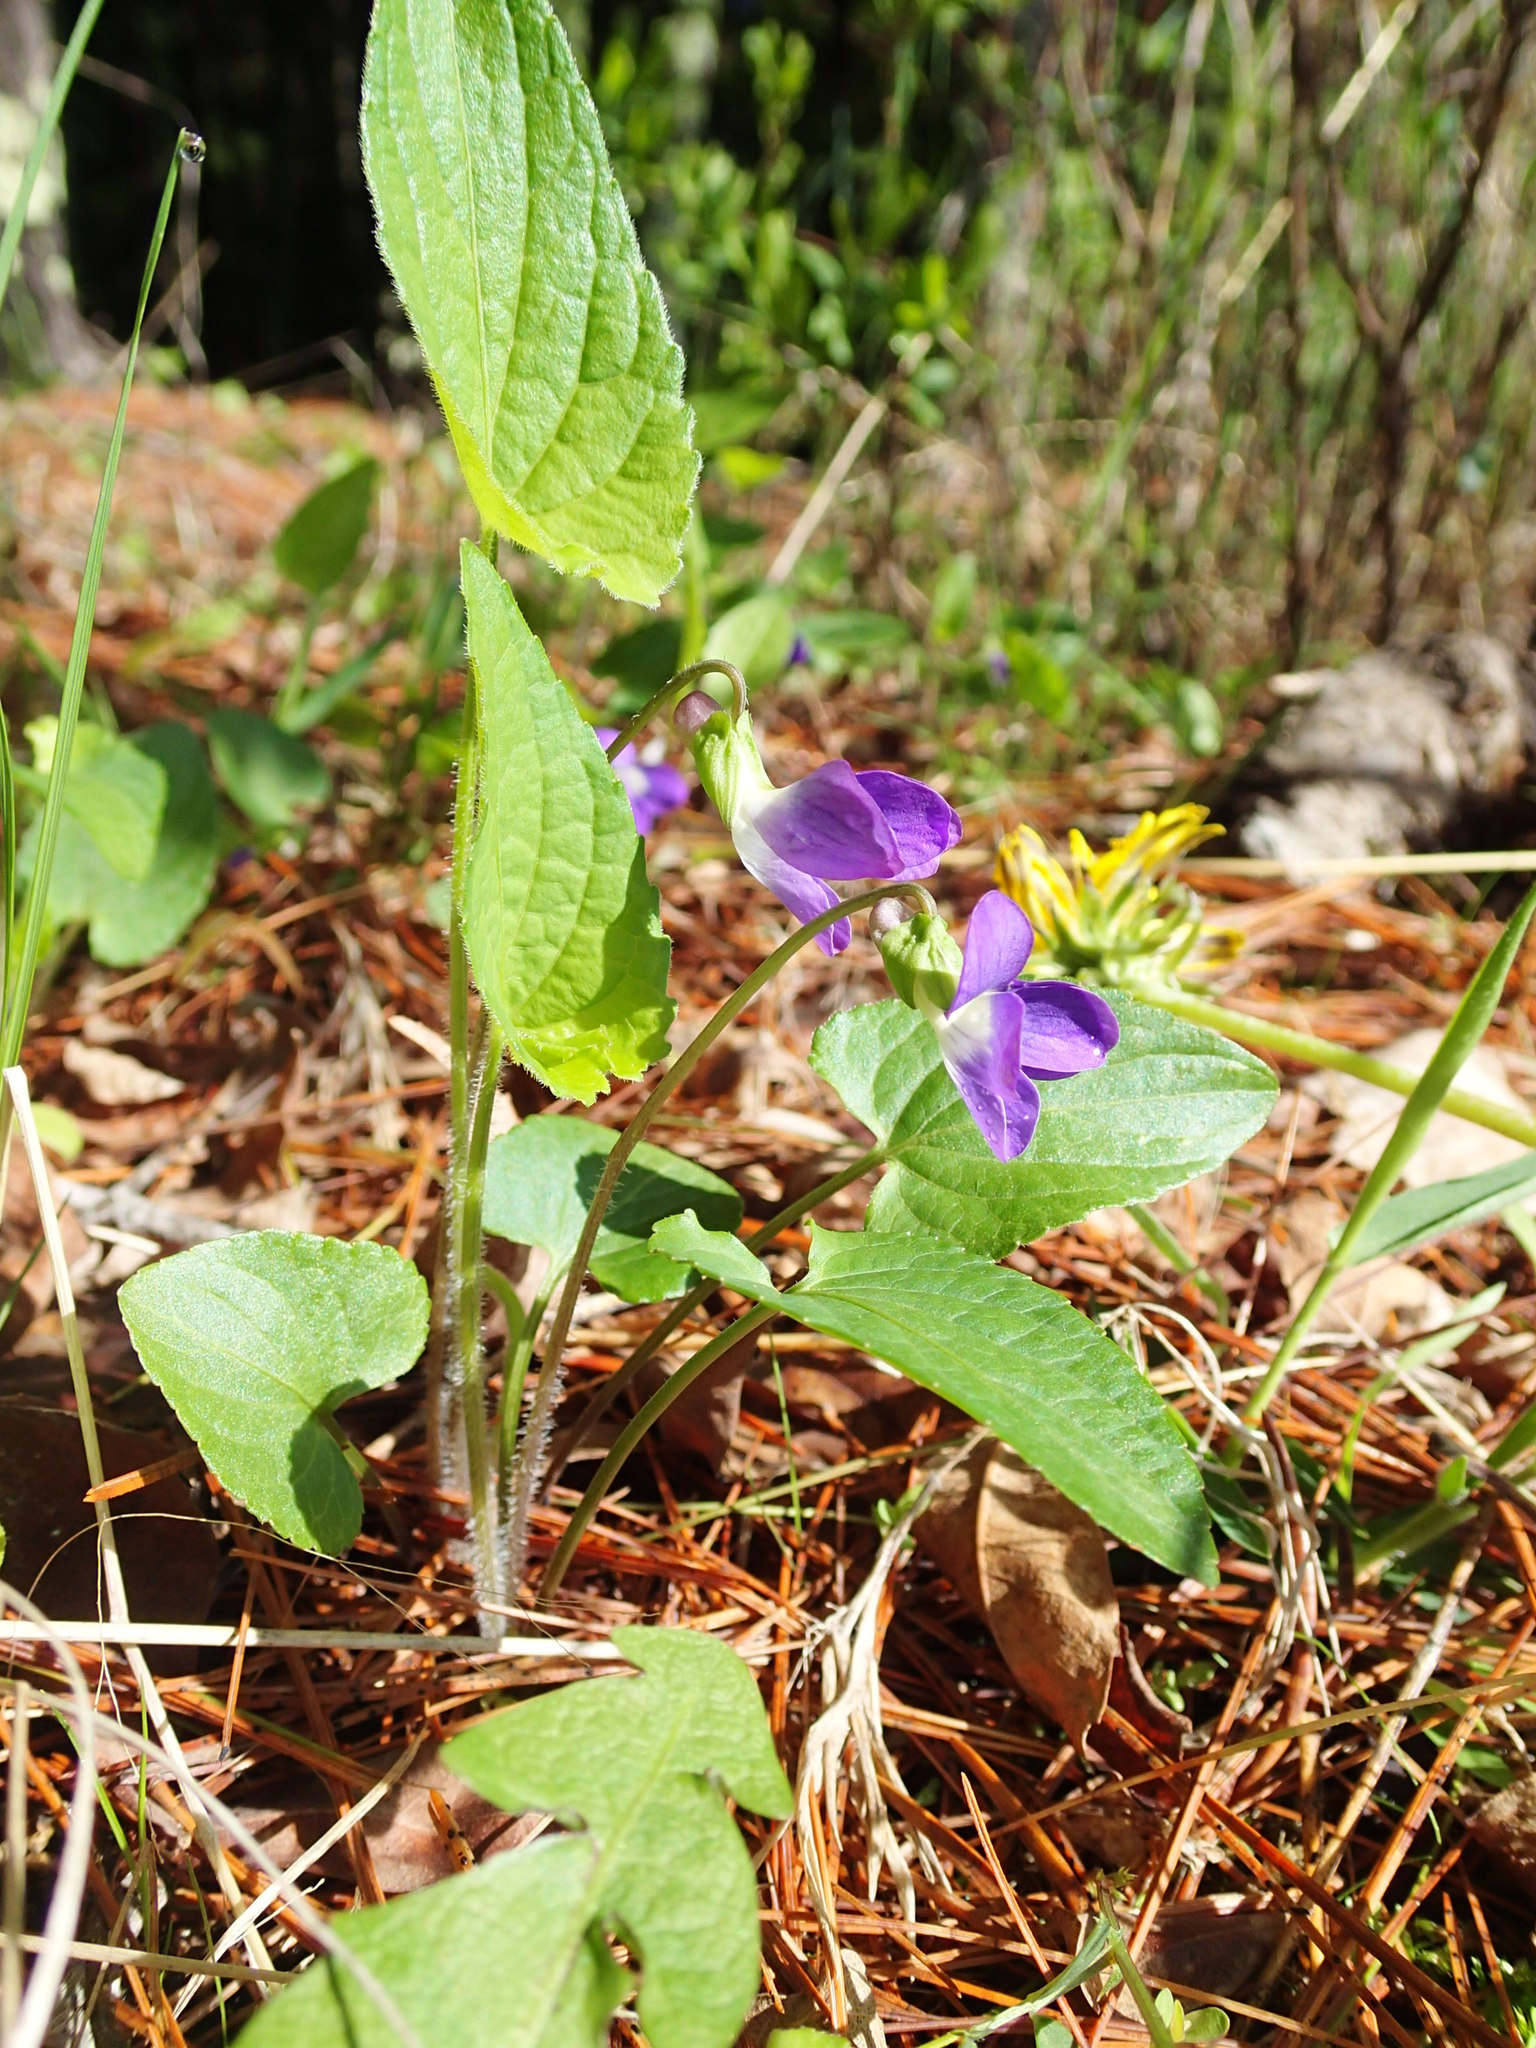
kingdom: Plantae
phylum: Tracheophyta
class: Magnoliopsida
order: Malpighiales
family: Violaceae
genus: Viola
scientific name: Viola novae-angliae
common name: New england blue violet
